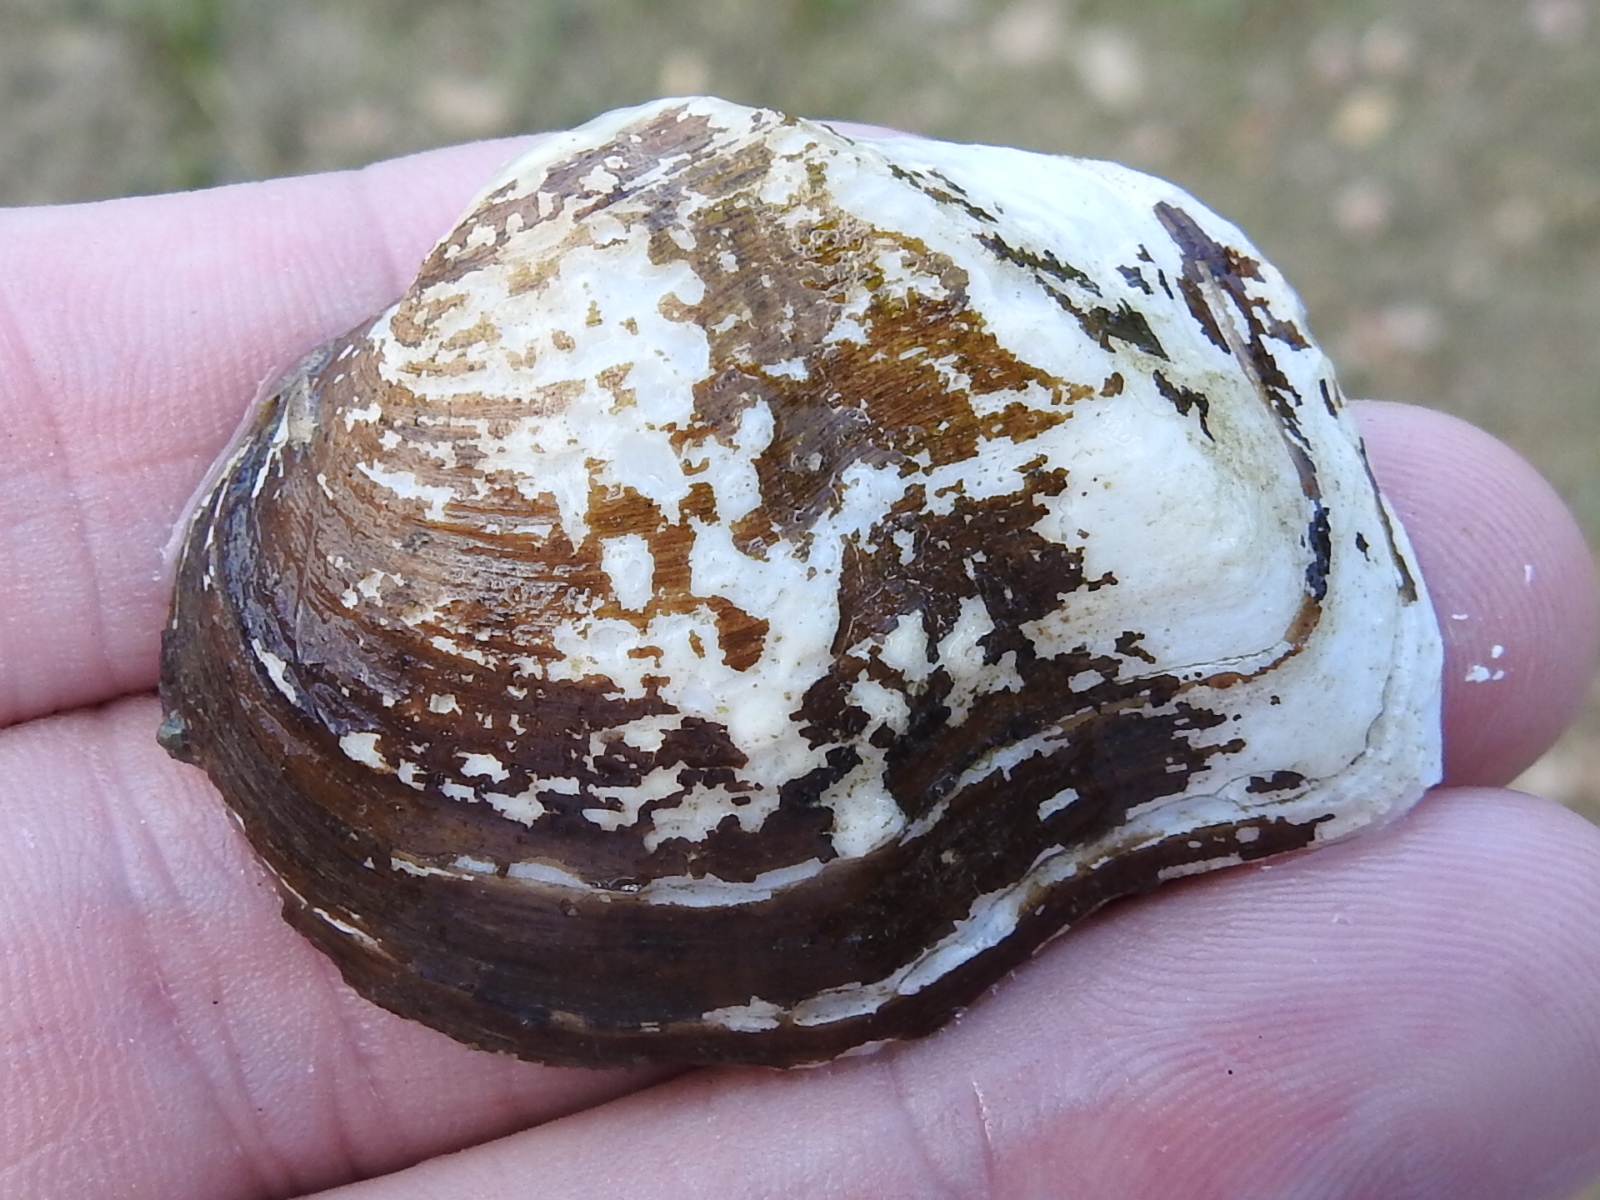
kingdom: Animalia
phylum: Mollusca
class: Bivalvia
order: Unionida
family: Unionidae
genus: Quadrula
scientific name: Quadrula quadrula
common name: Mapleleaf
